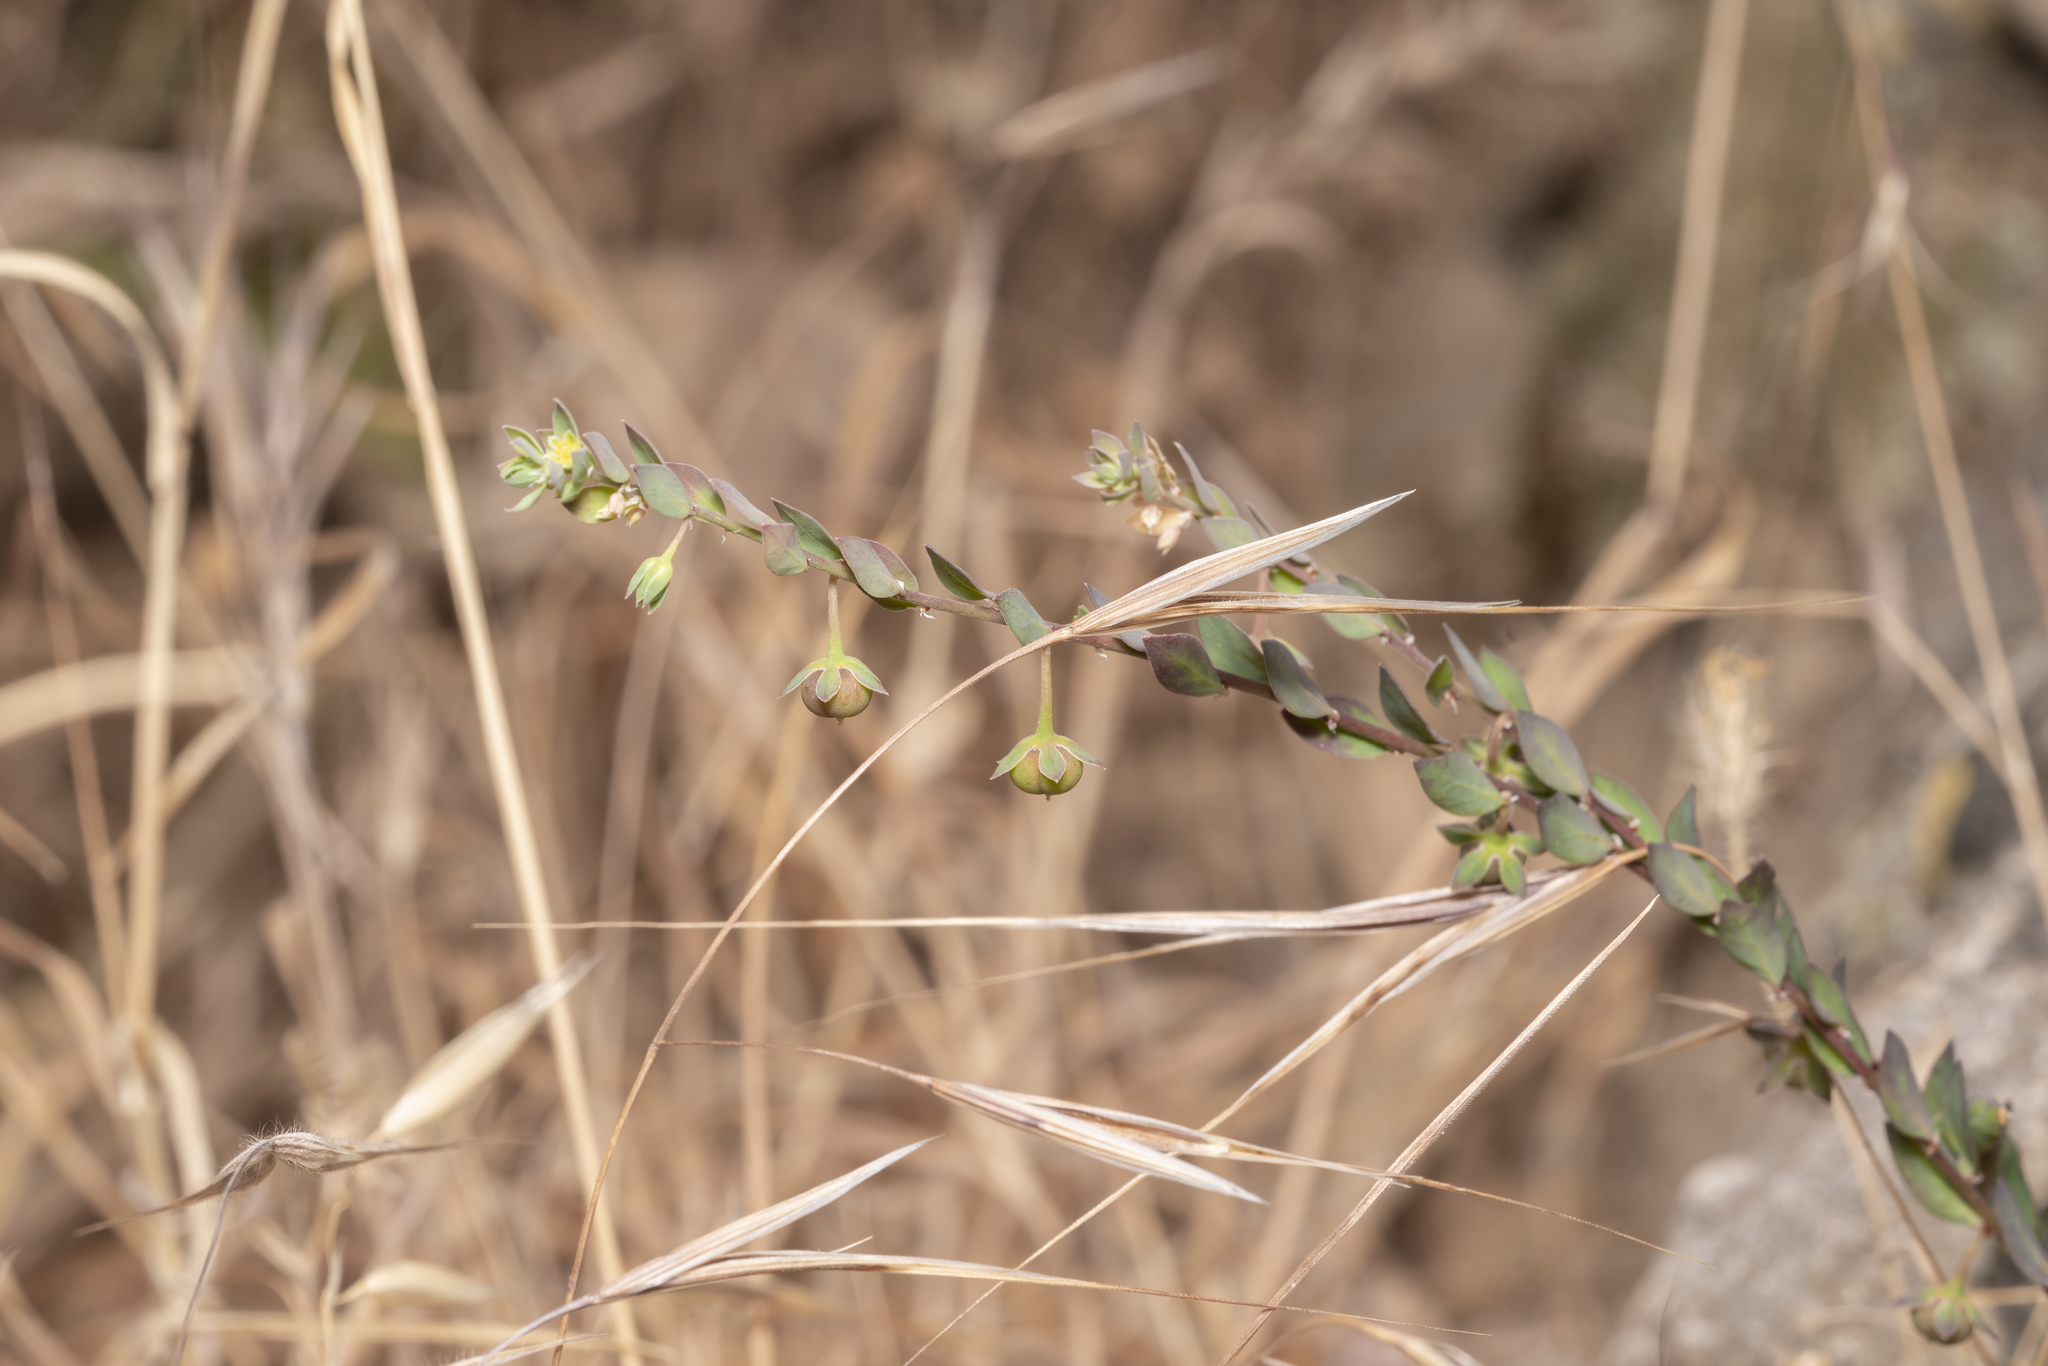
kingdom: Plantae
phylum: Tracheophyta
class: Magnoliopsida
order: Malpighiales
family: Phyllanthaceae
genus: Andrachne
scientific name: Andrachne telephioides
